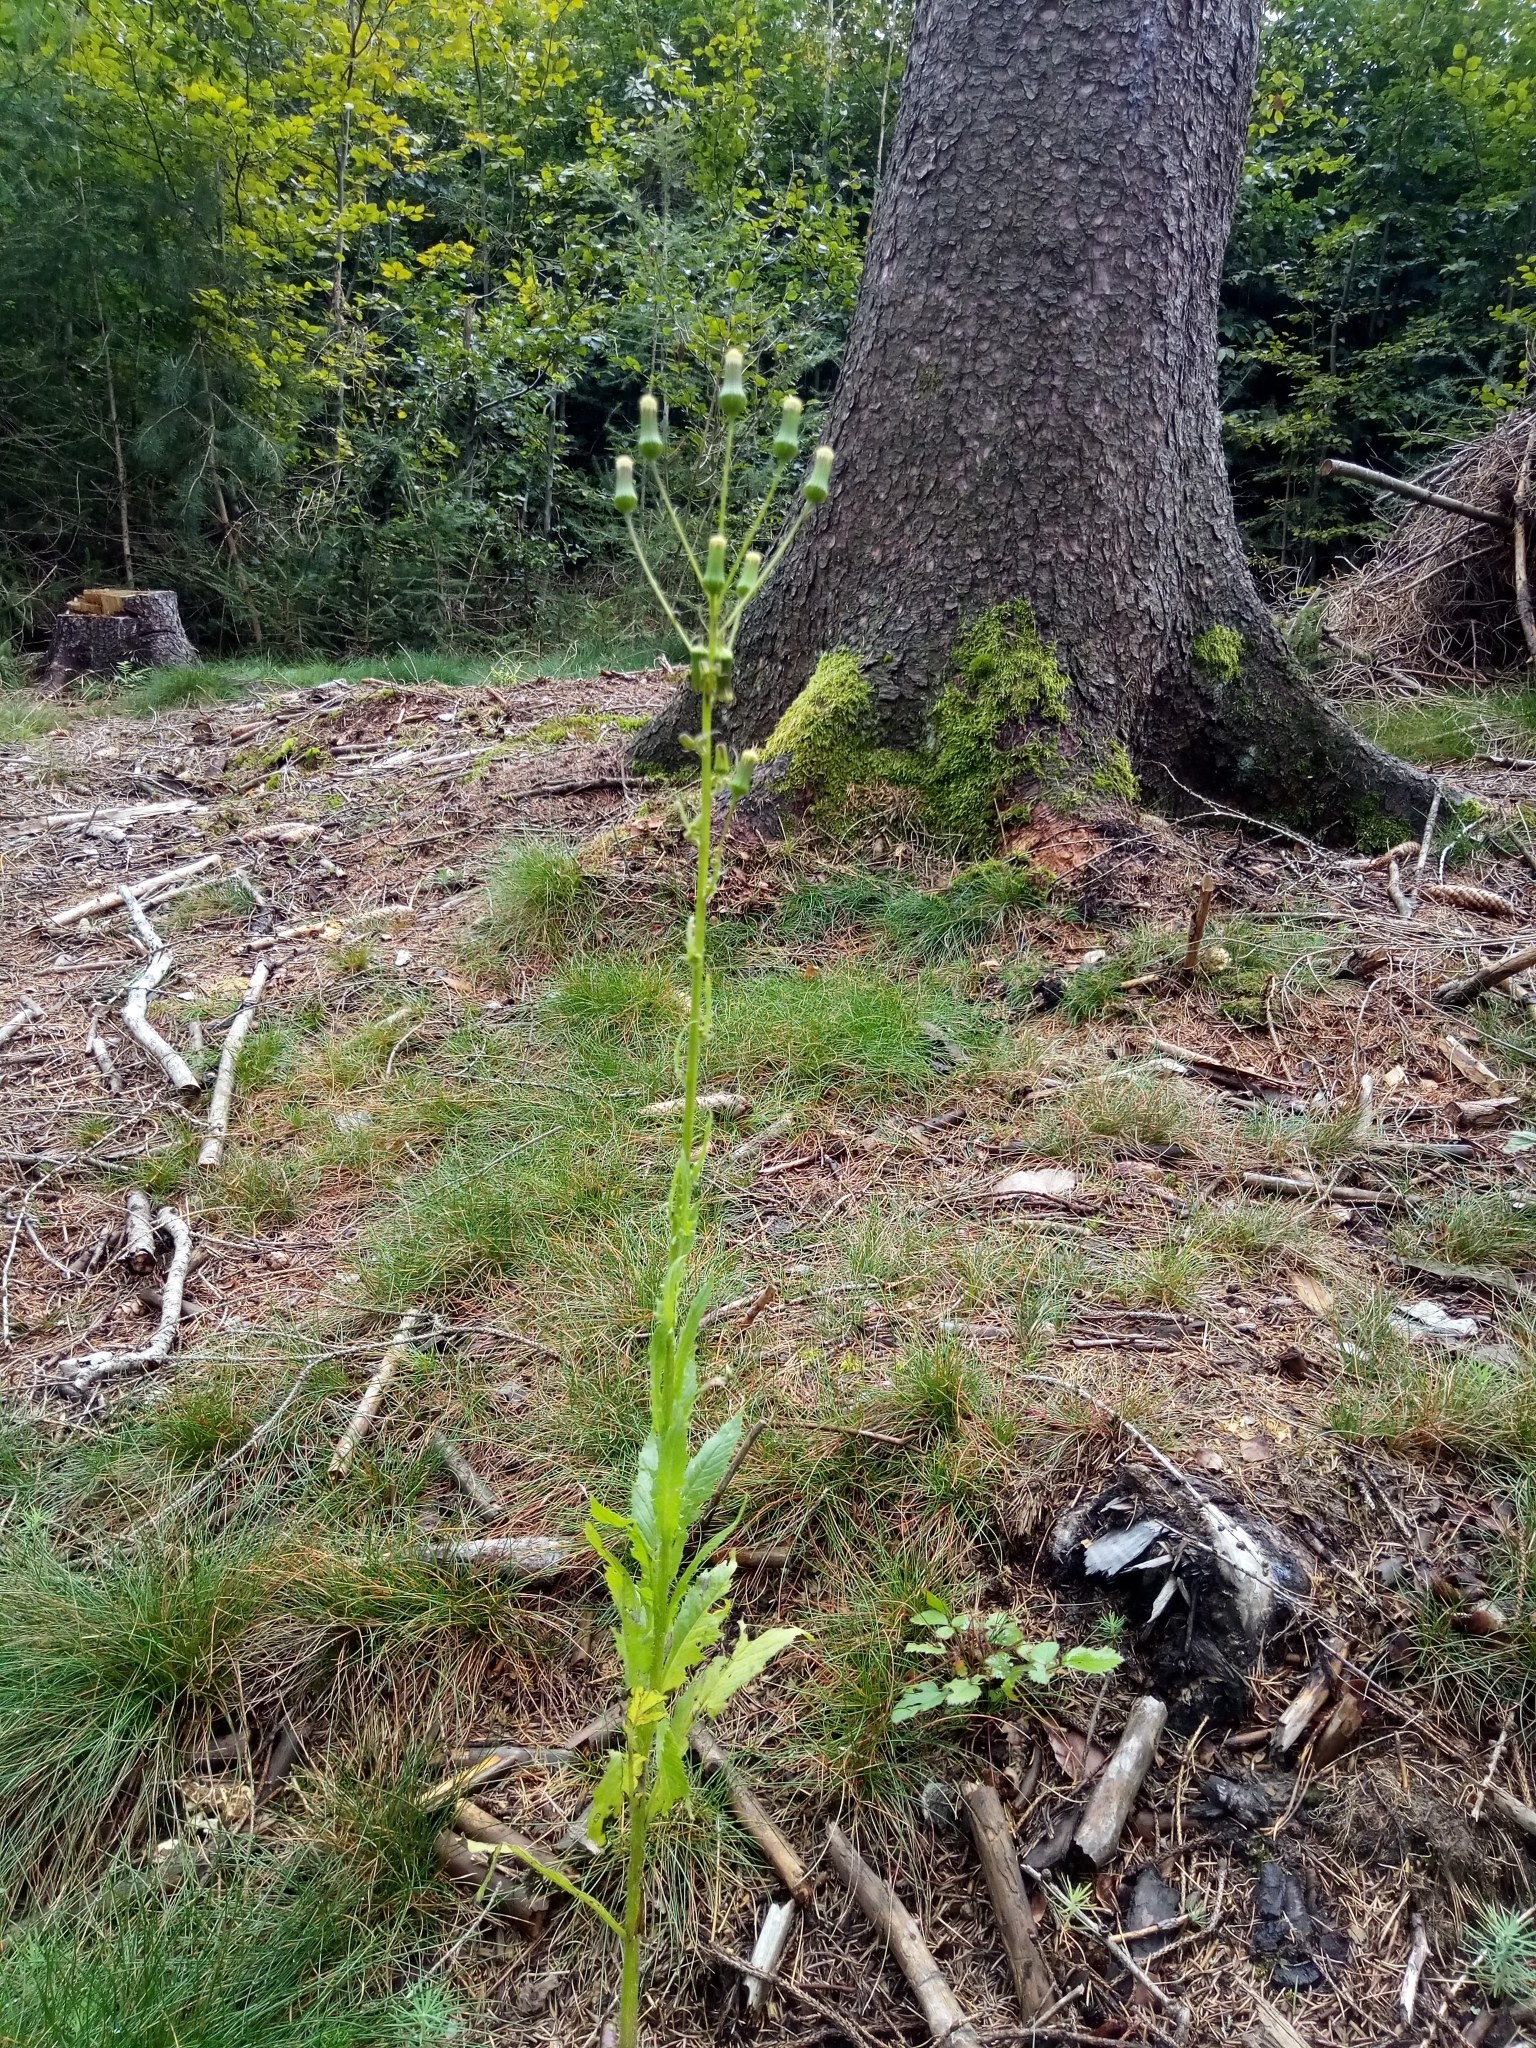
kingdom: Plantae
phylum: Tracheophyta
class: Magnoliopsida
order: Asterales
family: Asteraceae
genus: Erechtites
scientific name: Erechtites hieraciifolius
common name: American burnweed
